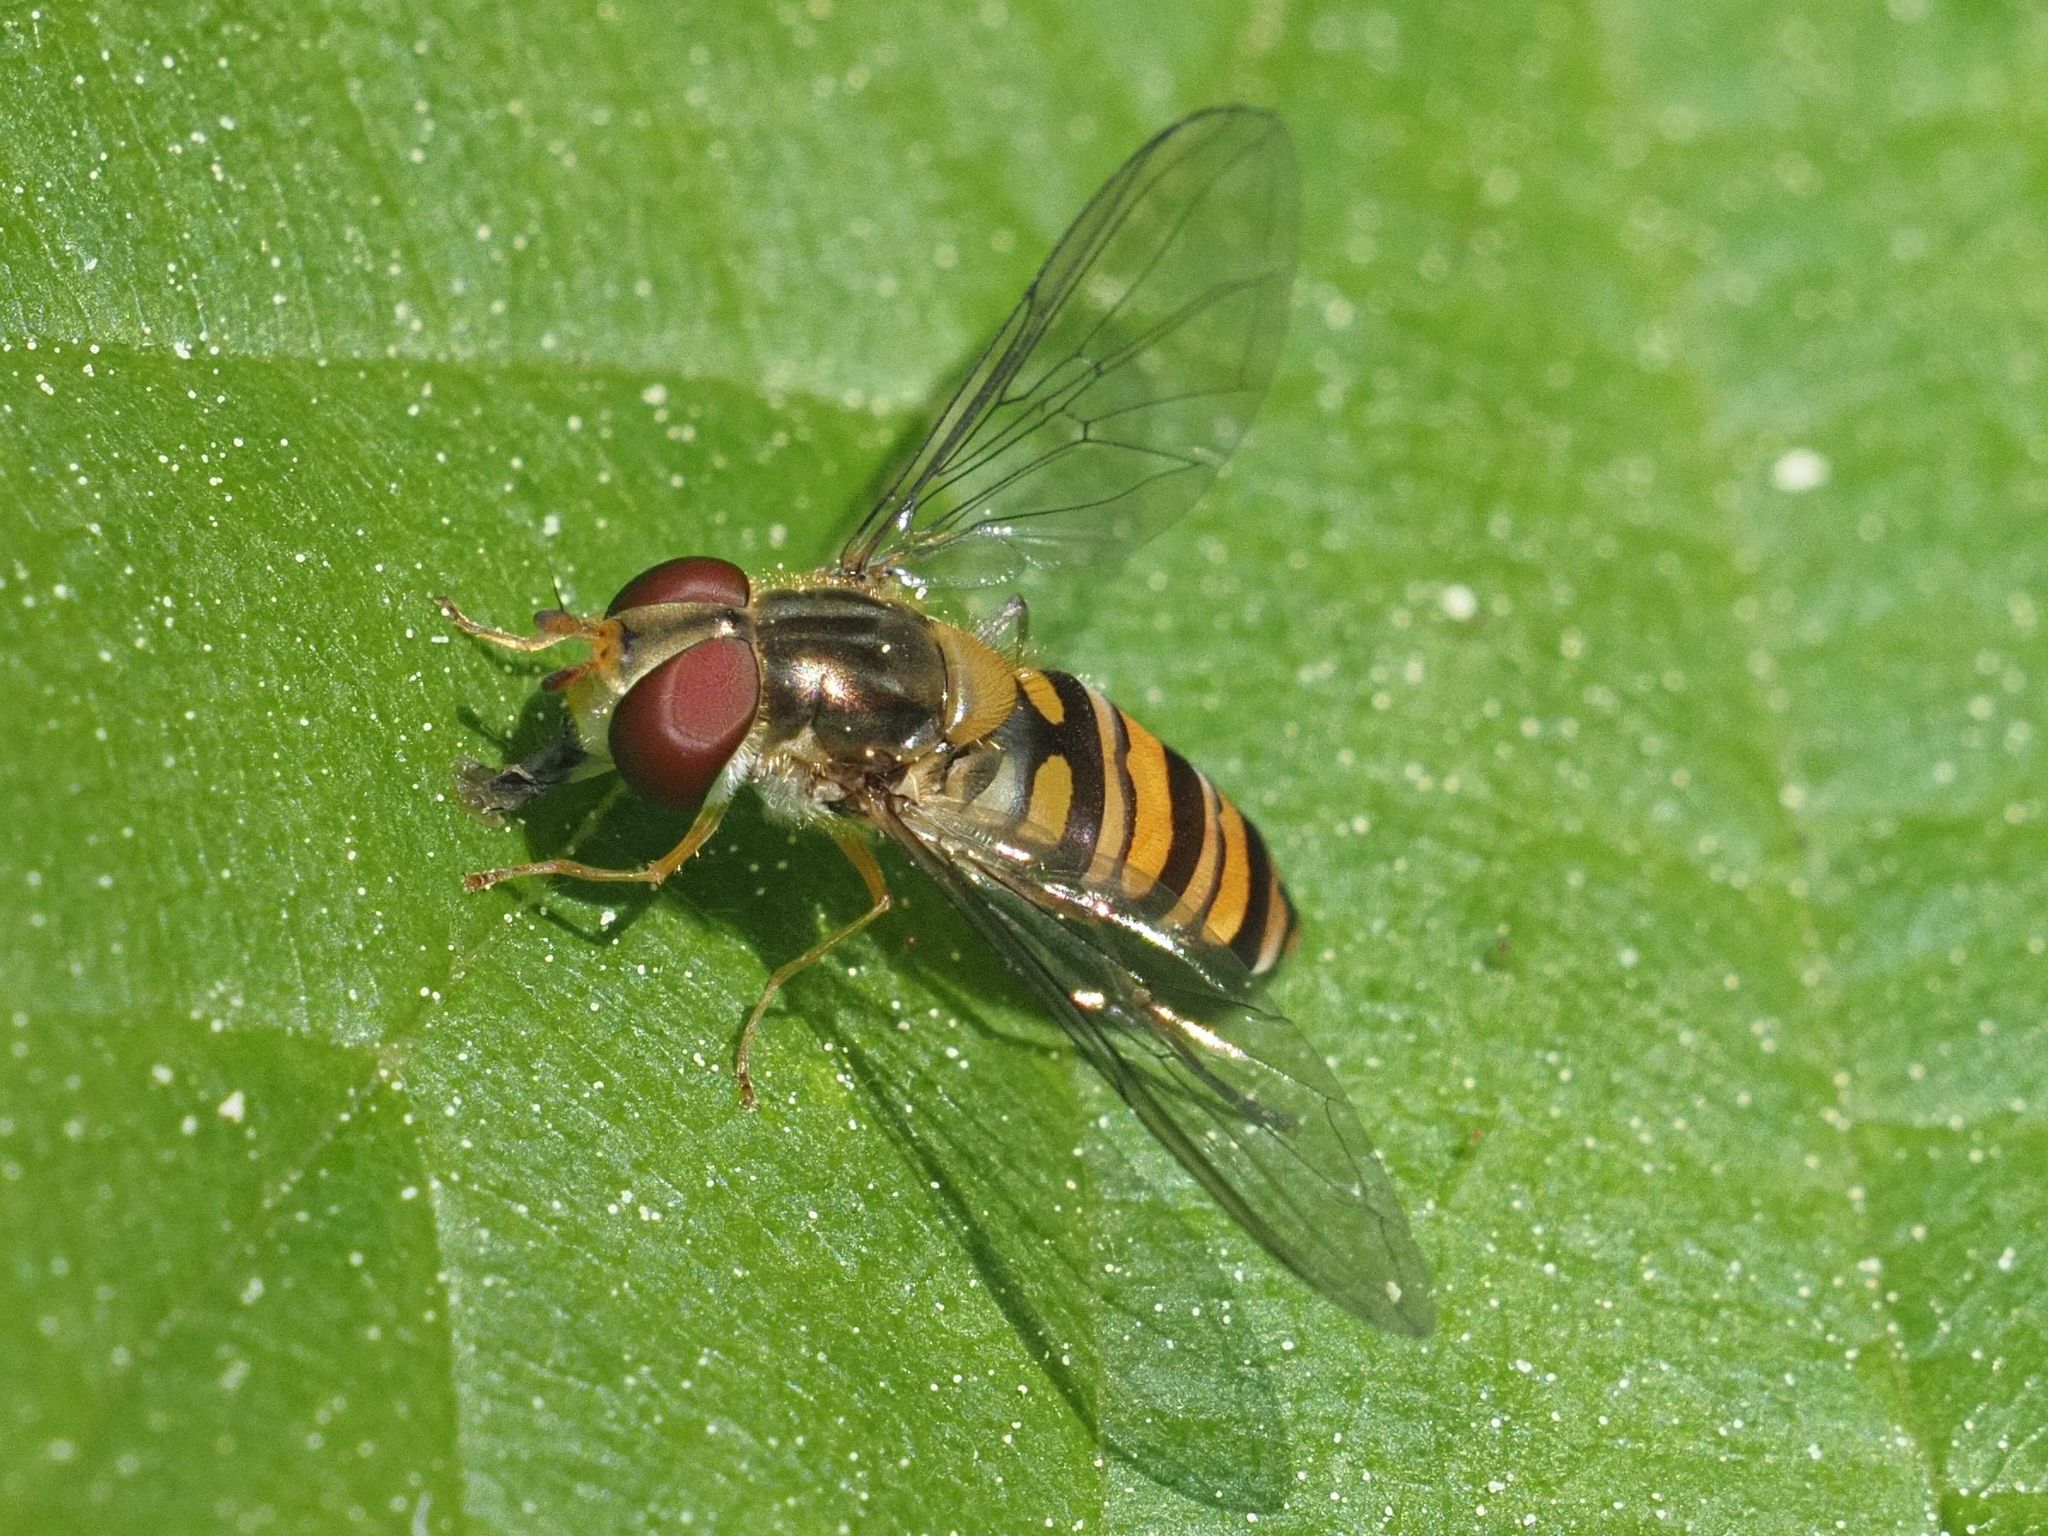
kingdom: Animalia
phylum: Arthropoda
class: Insecta
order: Diptera
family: Syrphidae
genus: Episyrphus
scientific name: Episyrphus balteatus
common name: Marmalade hoverfly
